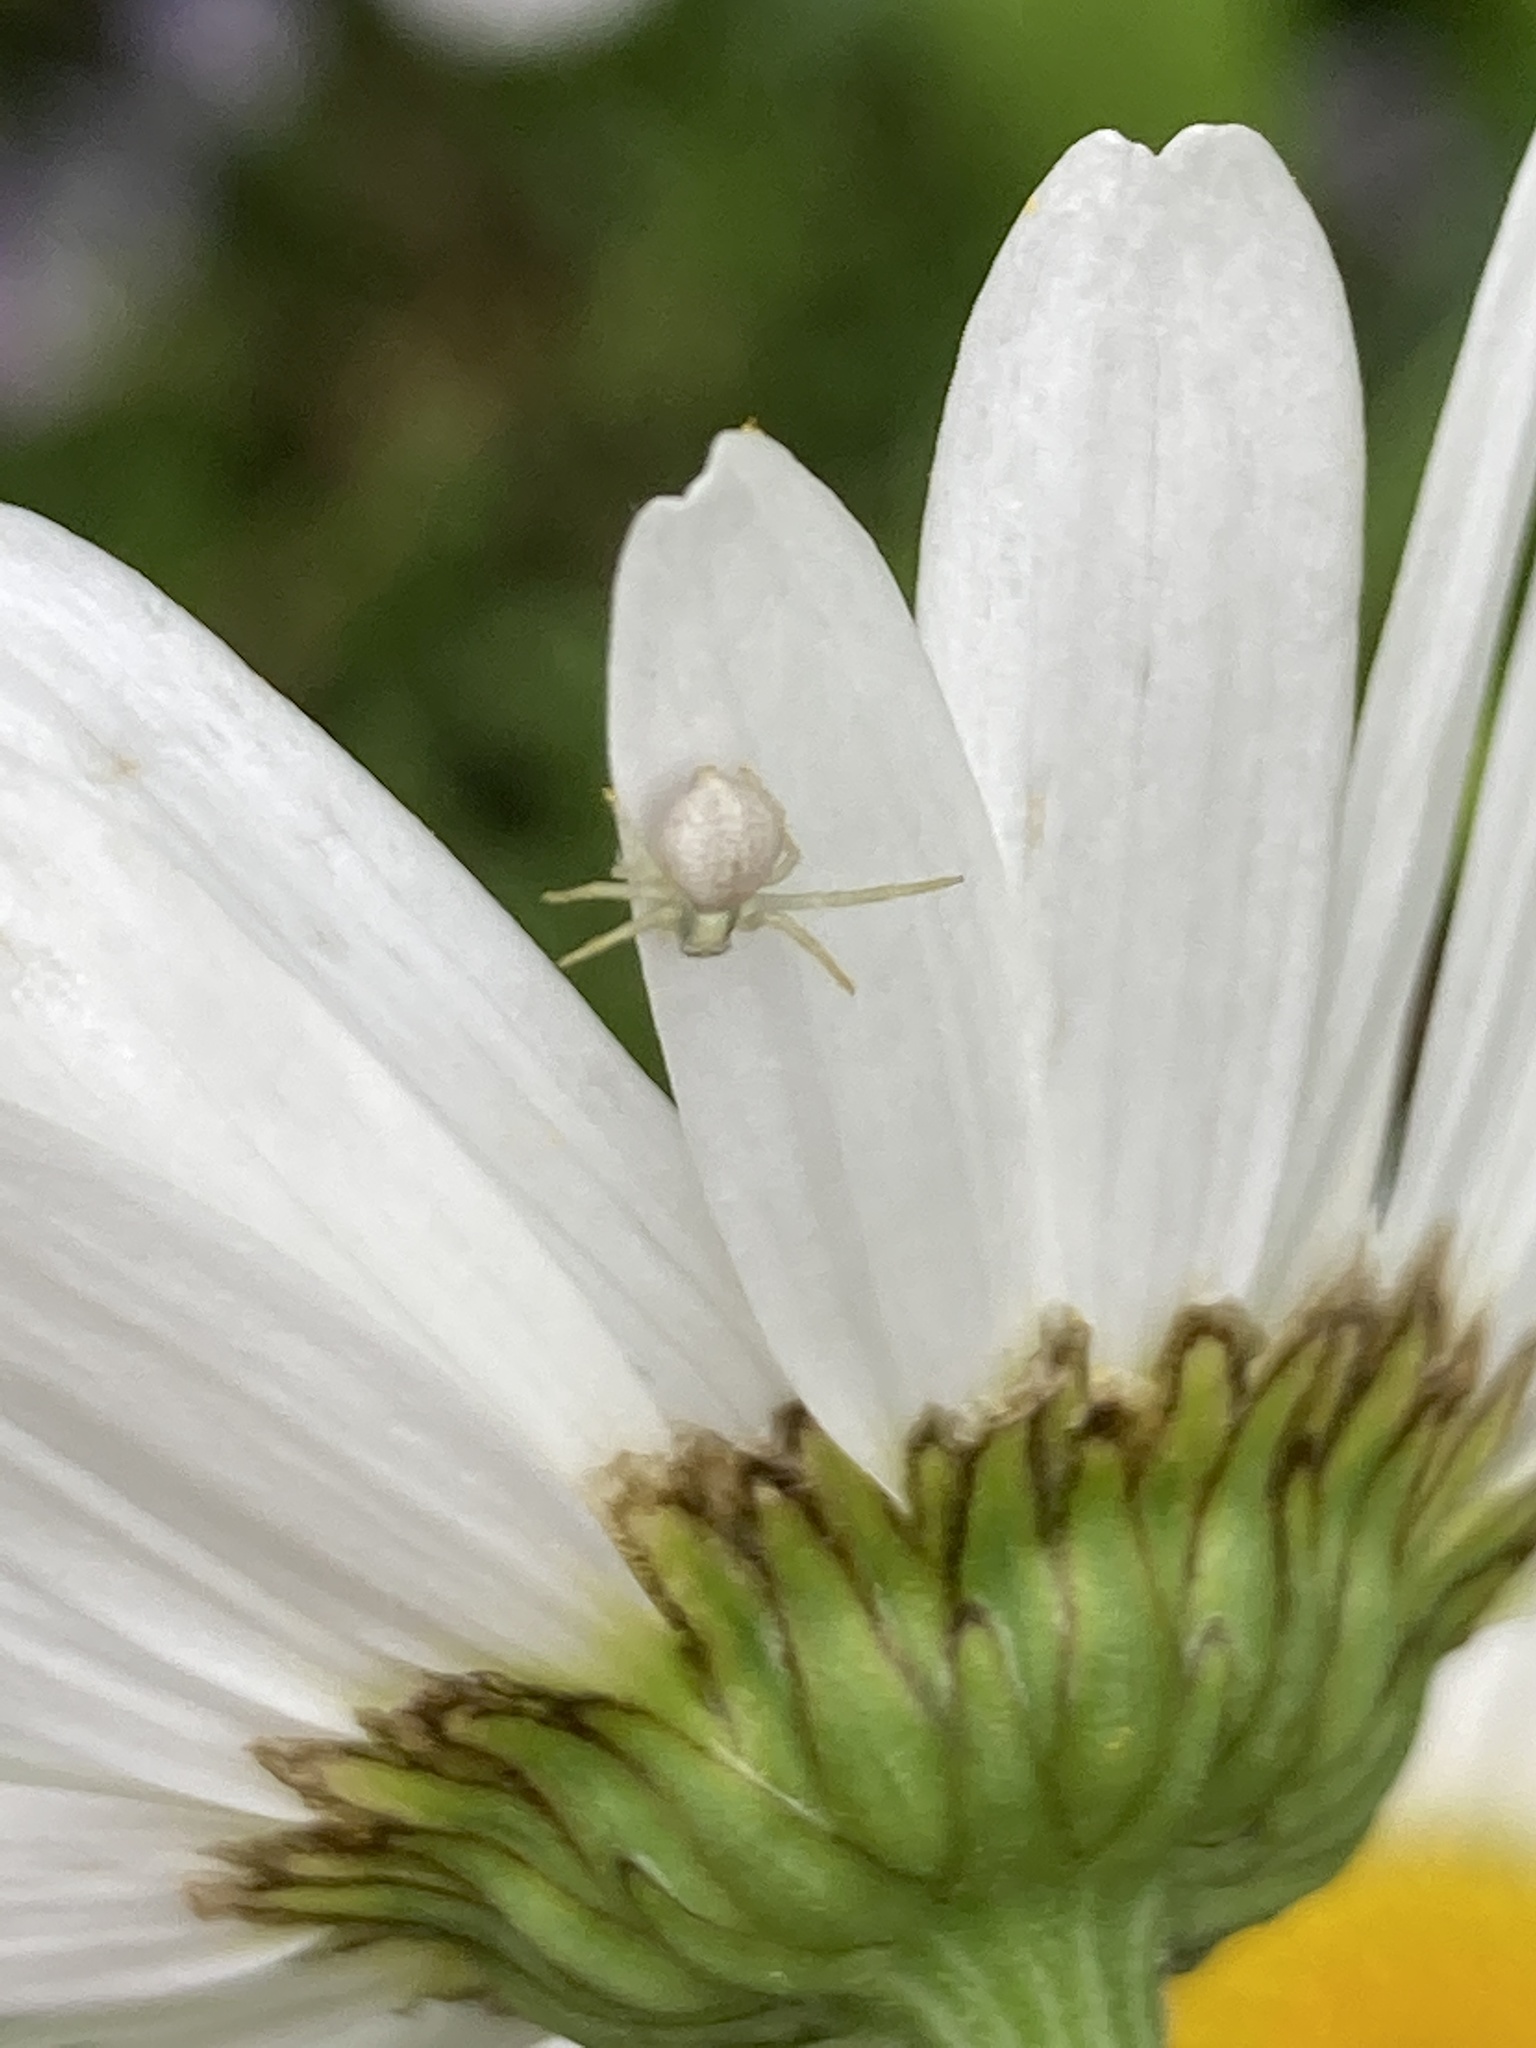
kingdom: Animalia
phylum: Arthropoda
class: Arachnida
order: Araneae
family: Thomisidae
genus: Misumena
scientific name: Misumena vatia
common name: Goldenrod crab spider
